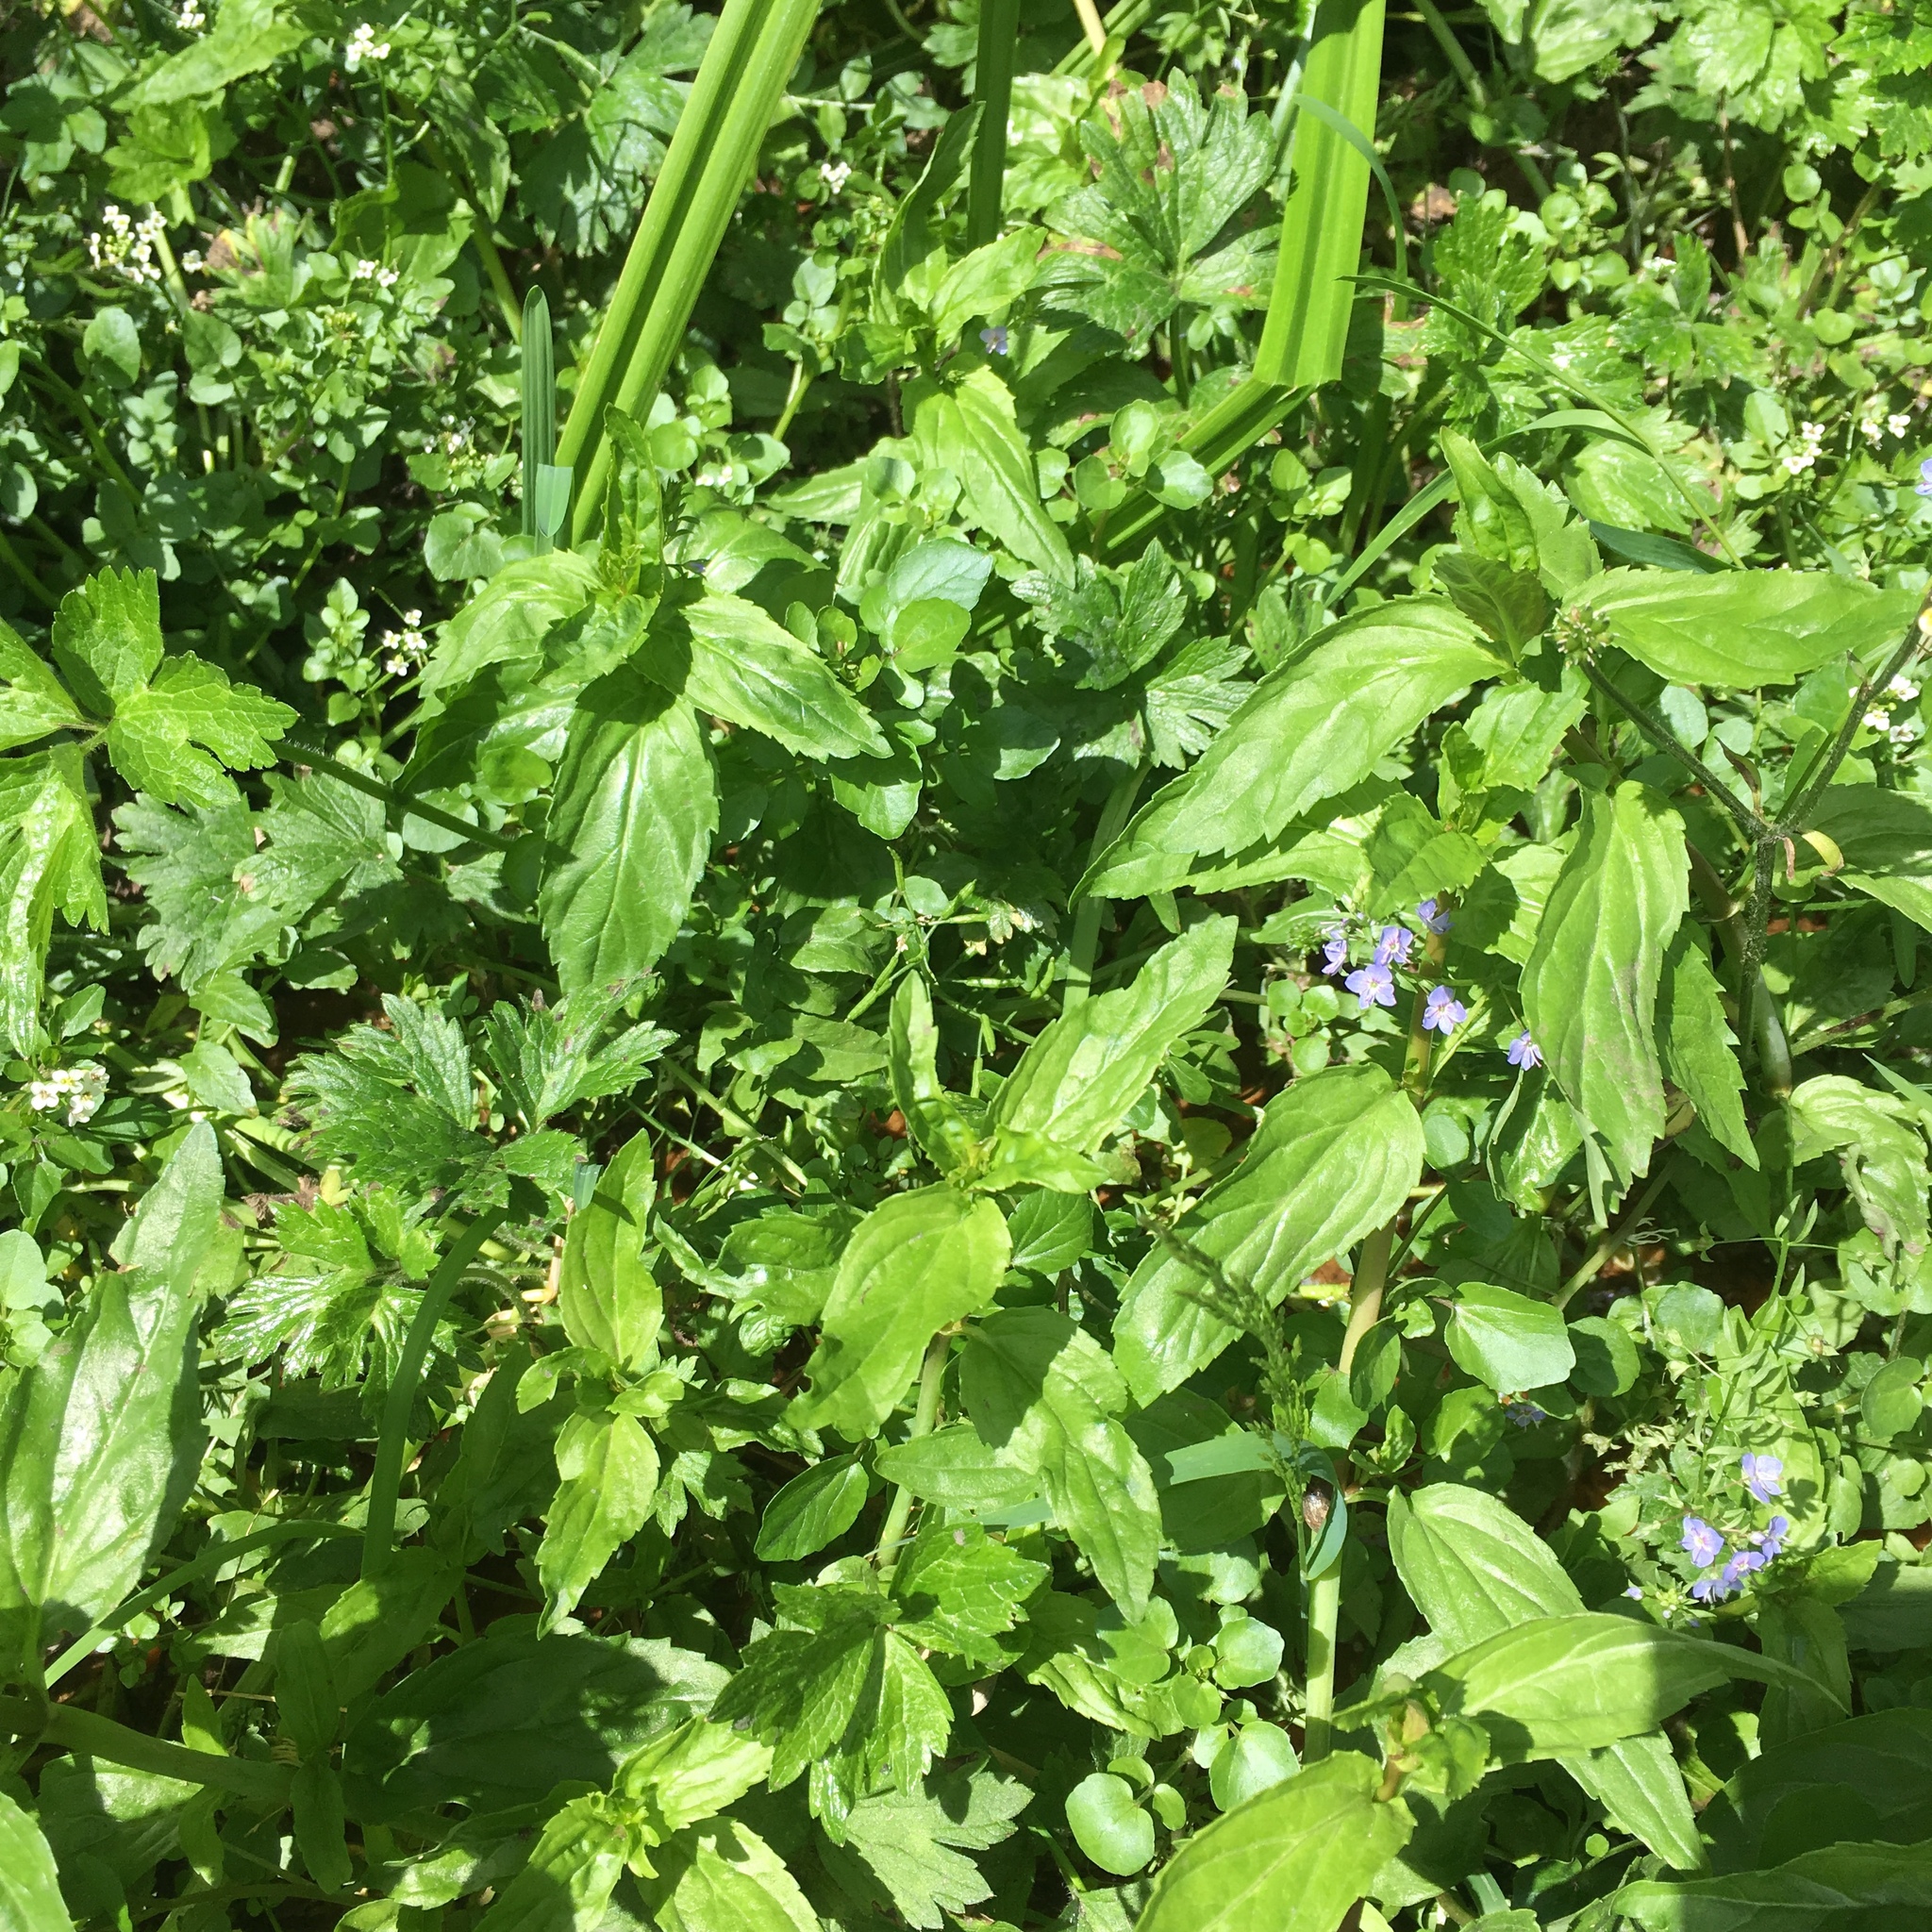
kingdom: Plantae
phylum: Tracheophyta
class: Magnoliopsida
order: Lamiales
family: Plantaginaceae
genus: Veronica
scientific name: Veronica americana
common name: American brooklime
